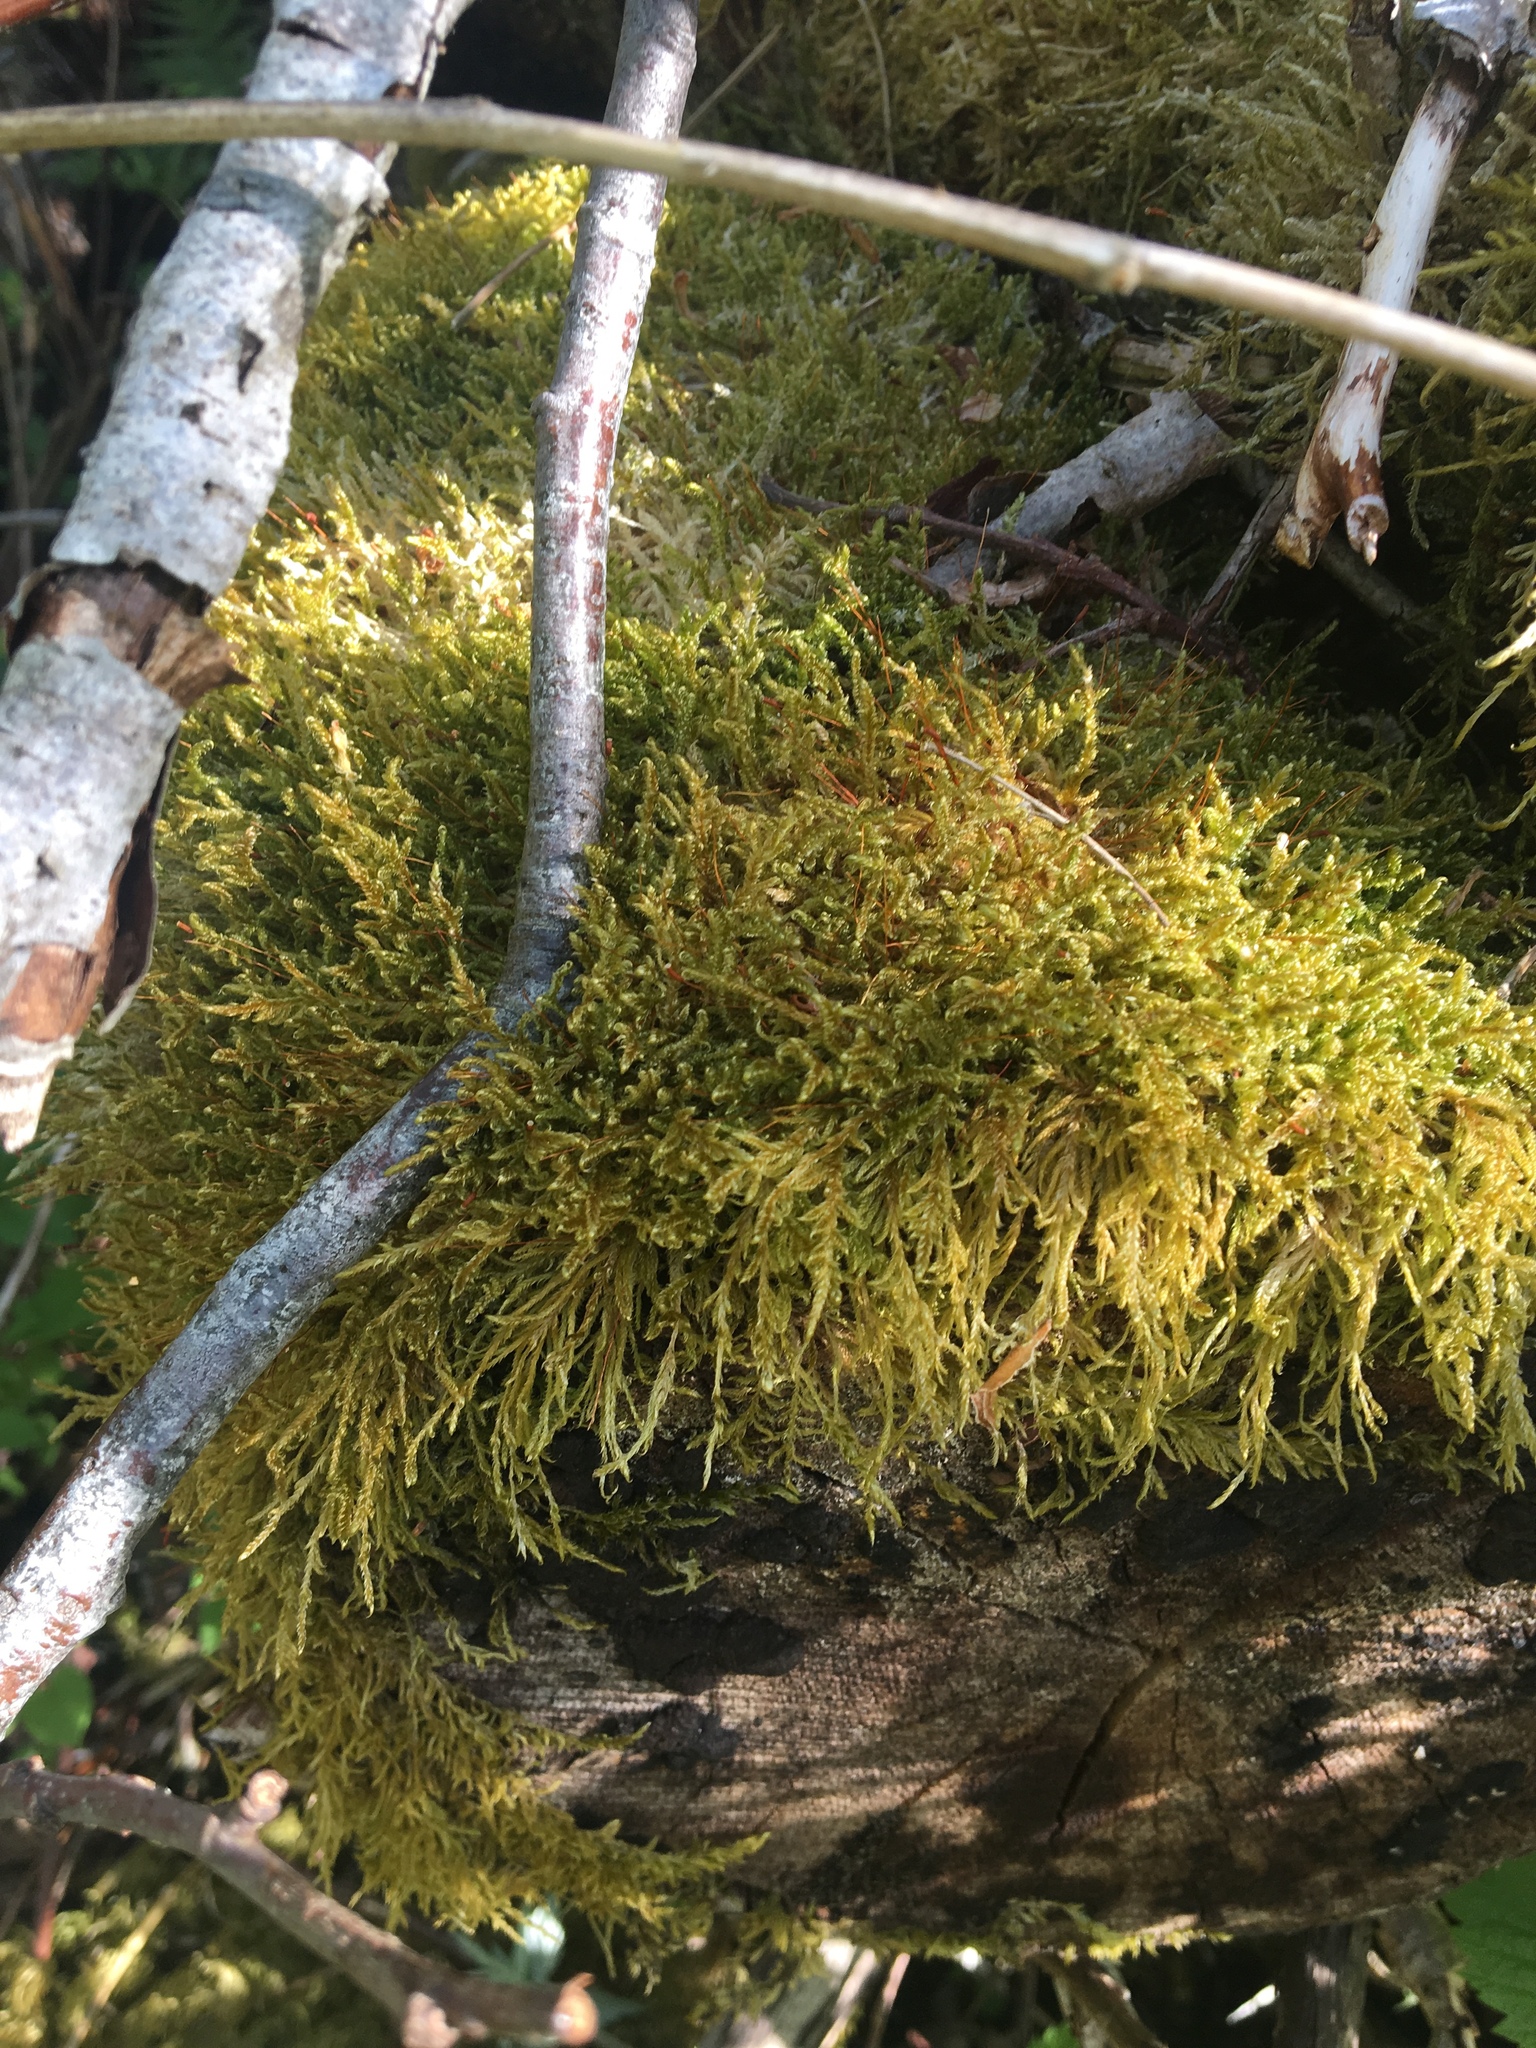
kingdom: Plantae
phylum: Bryophyta
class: Bryopsida
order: Hypnales
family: Hypnaceae
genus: Hypnum
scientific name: Hypnum cupressiforme
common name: Cypress-leaved plait-moss
